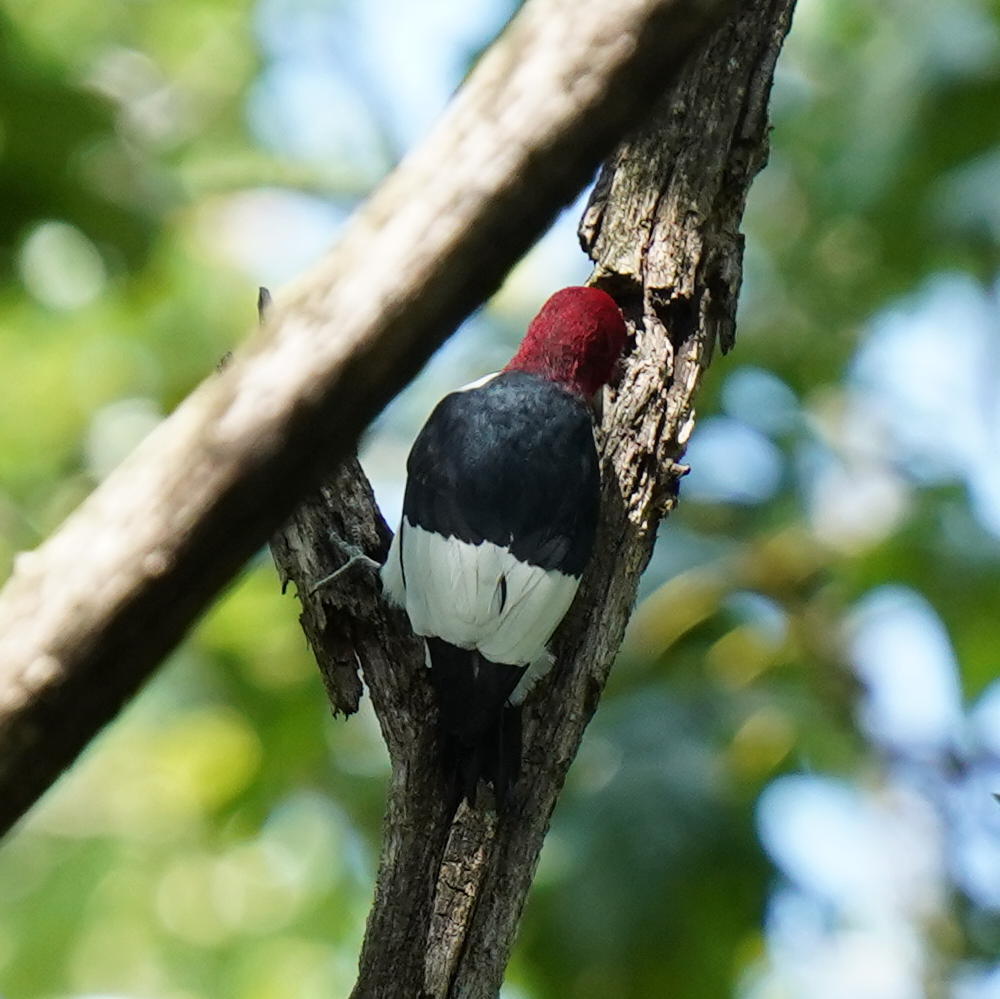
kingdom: Animalia
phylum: Chordata
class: Aves
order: Piciformes
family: Picidae
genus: Melanerpes
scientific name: Melanerpes erythrocephalus
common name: Red-headed woodpecker
